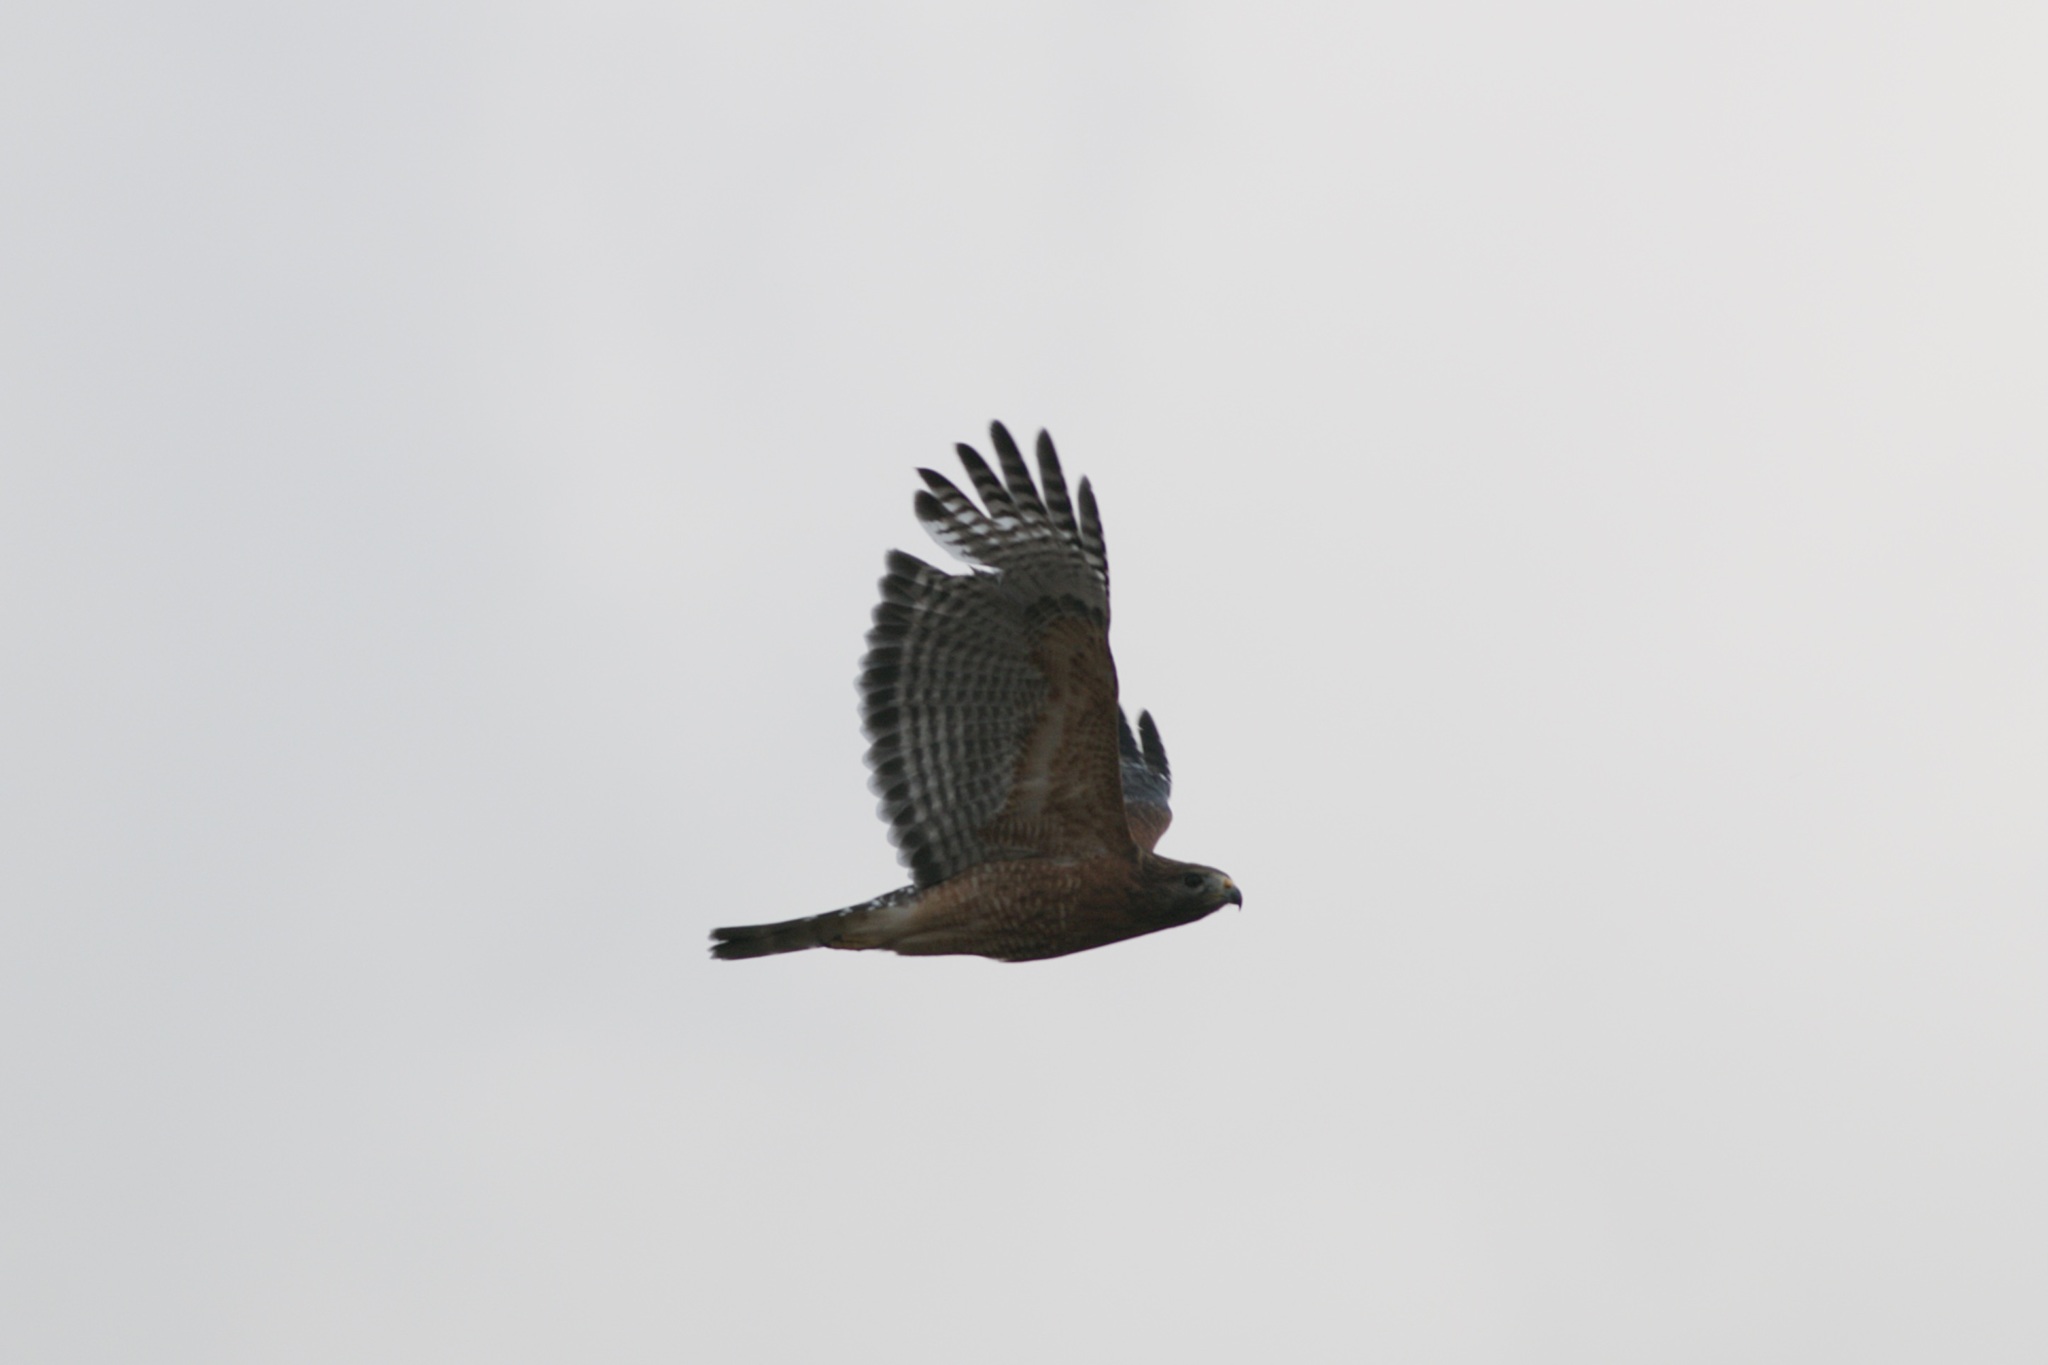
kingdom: Animalia
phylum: Chordata
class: Aves
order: Accipitriformes
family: Accipitridae
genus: Buteo
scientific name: Buteo lineatus
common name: Red-shouldered hawk
